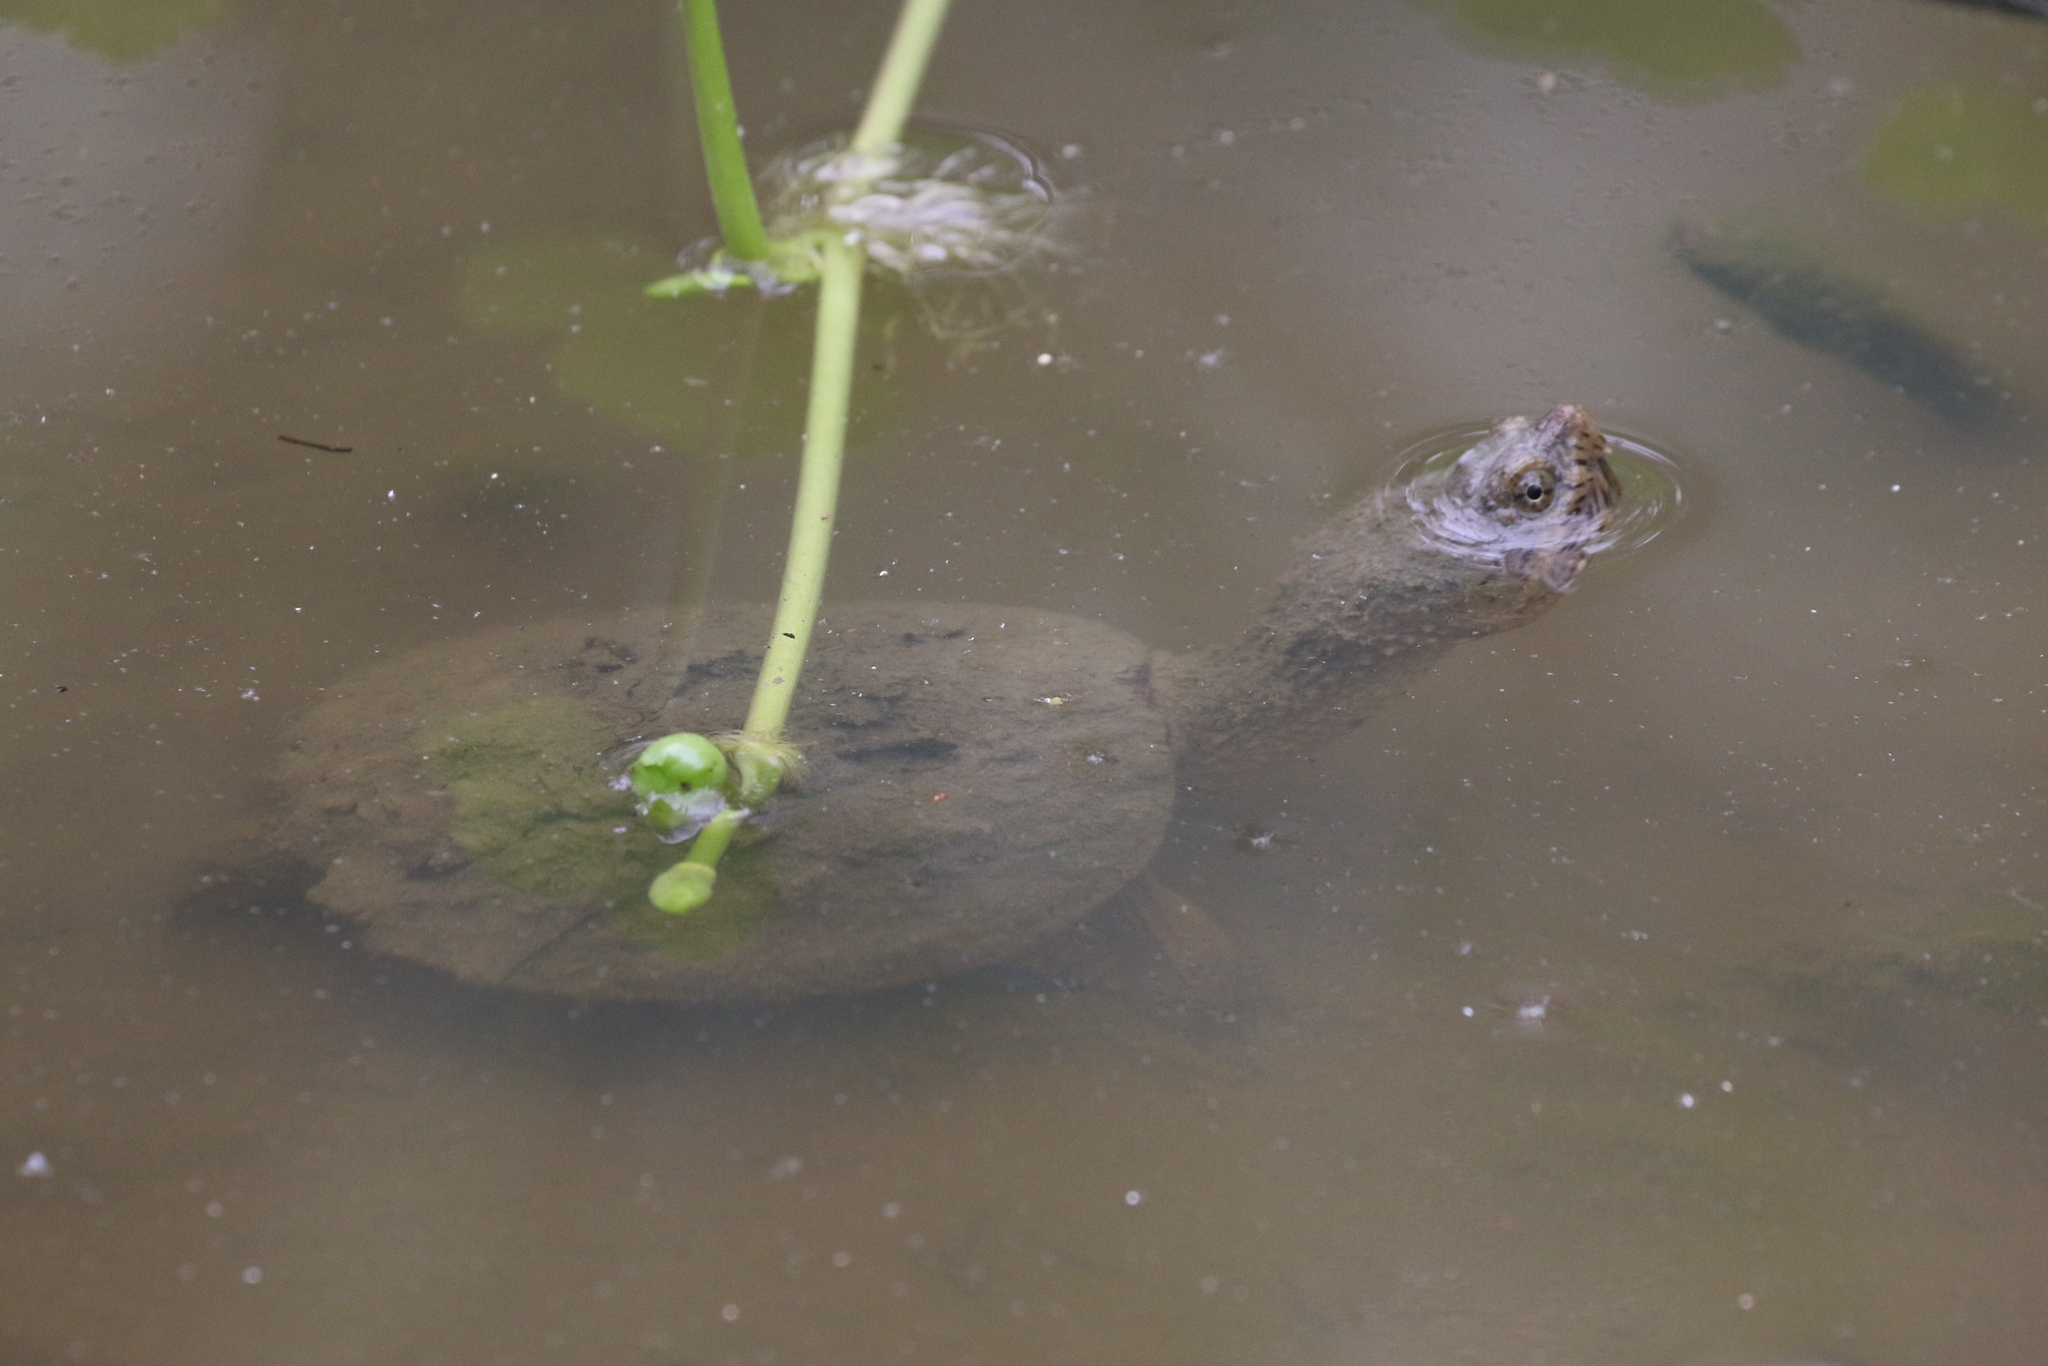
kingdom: Animalia
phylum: Chordata
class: Testudines
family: Chelydridae
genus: Chelydra
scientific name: Chelydra serpentina
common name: Common snapping turtle
